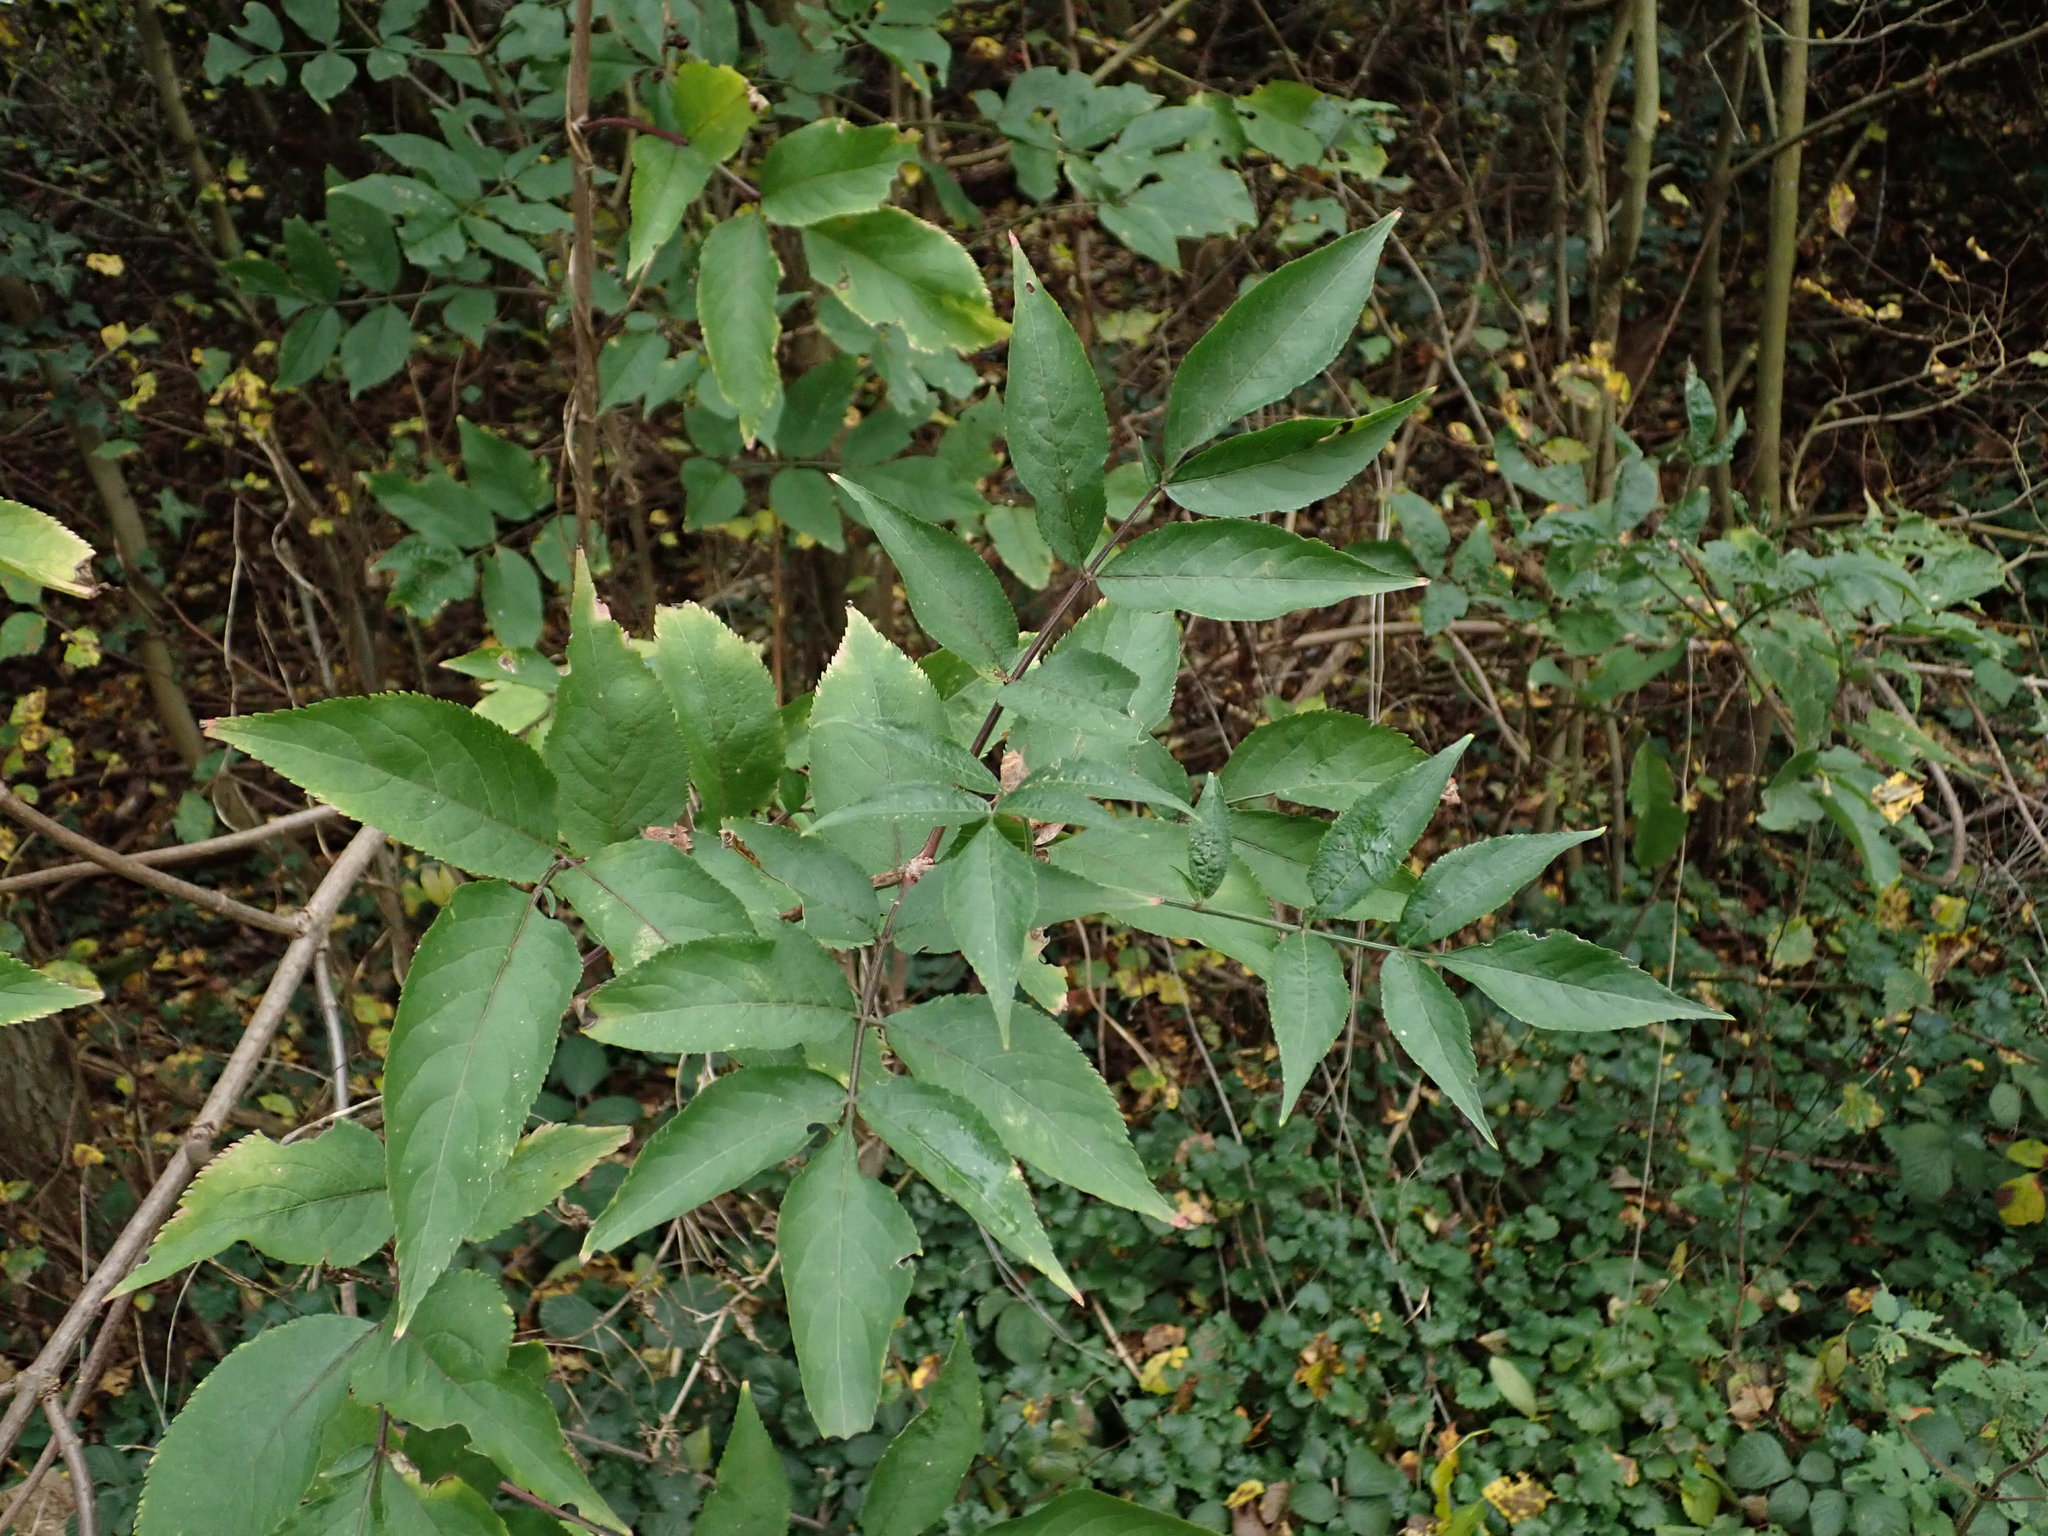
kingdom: Plantae
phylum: Tracheophyta
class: Magnoliopsida
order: Dipsacales
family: Viburnaceae
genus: Sambucus
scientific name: Sambucus nigra
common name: Elder
